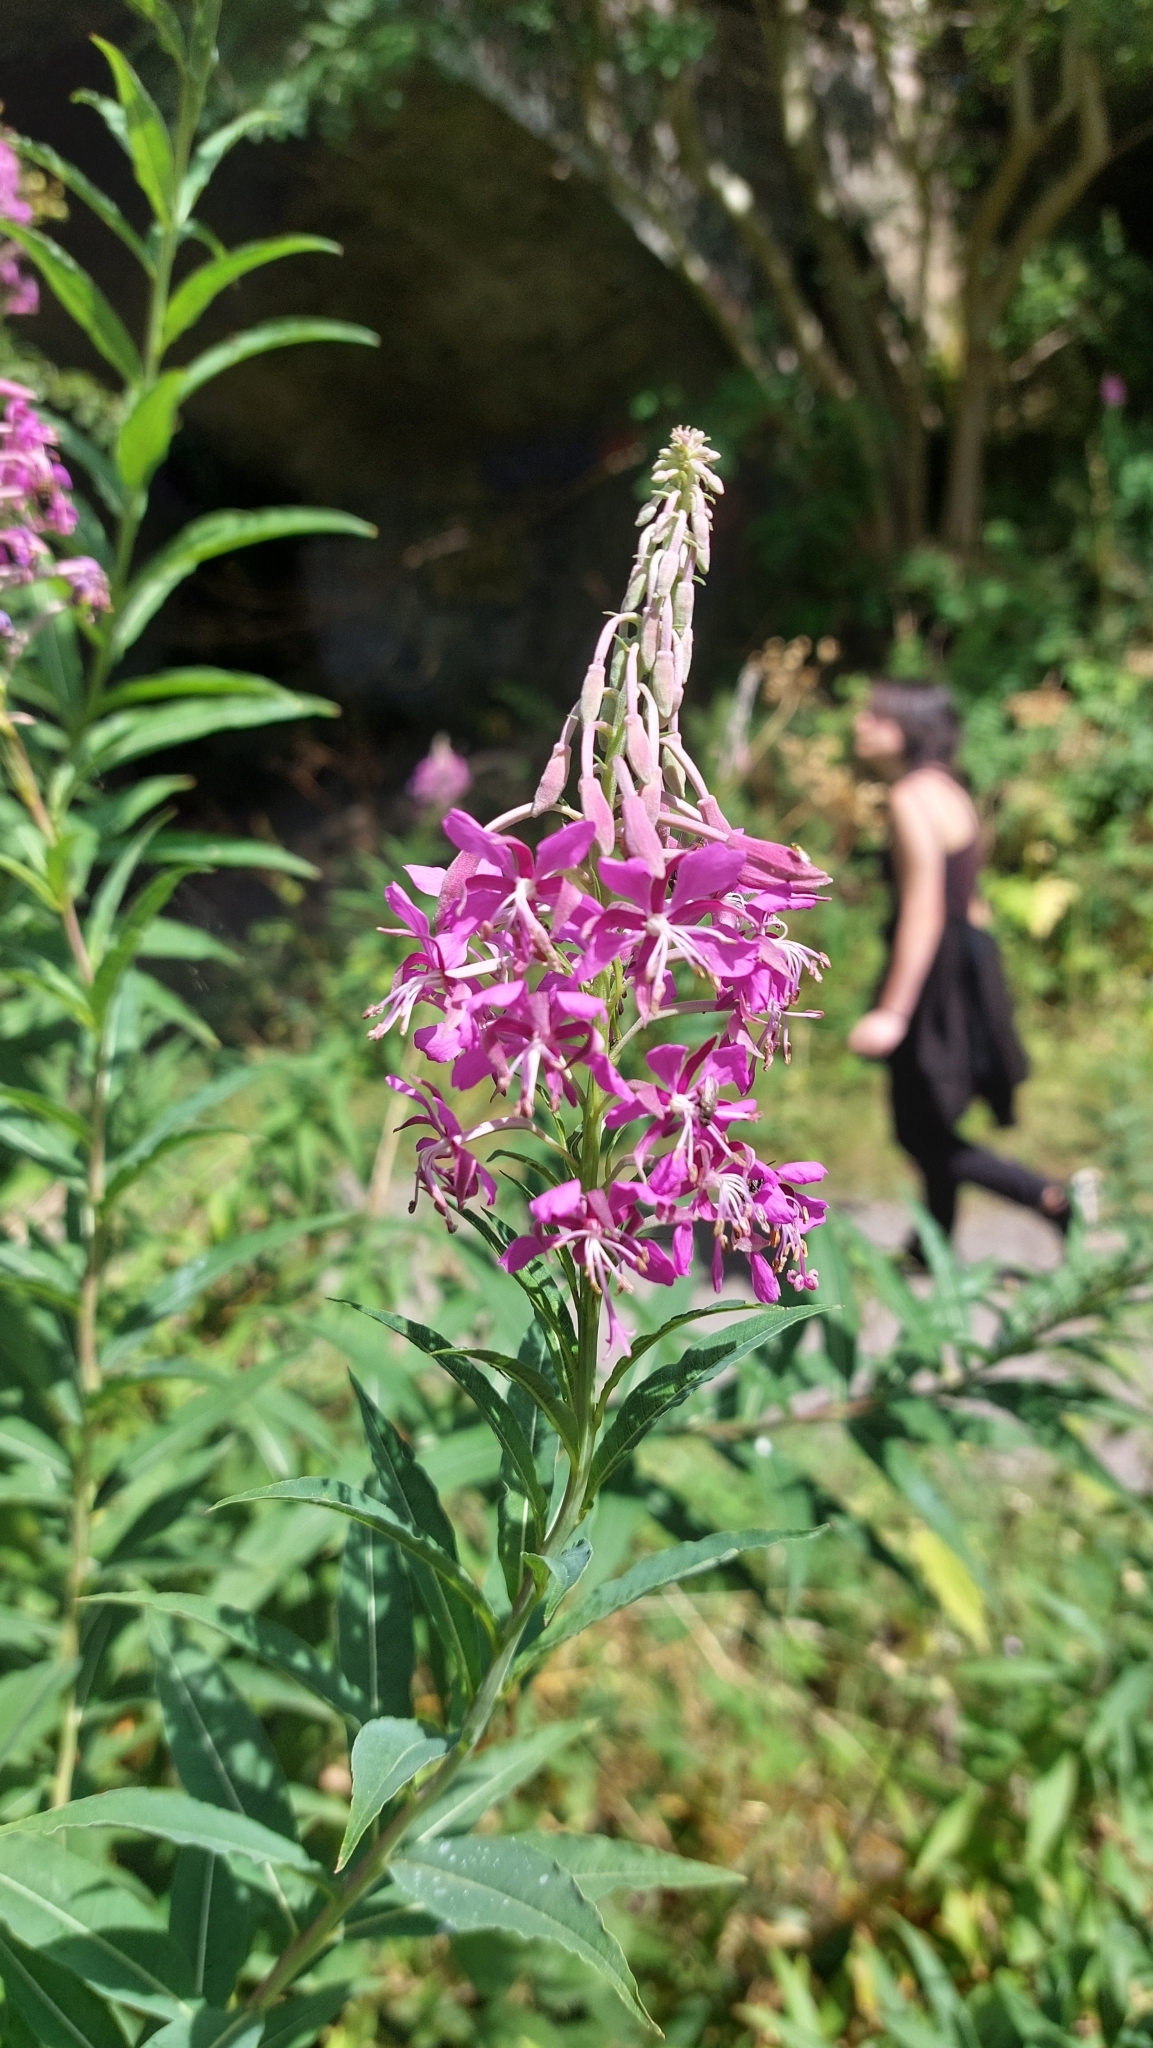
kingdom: Plantae
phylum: Tracheophyta
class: Magnoliopsida
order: Myrtales
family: Onagraceae
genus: Chamaenerion
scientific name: Chamaenerion angustifolium
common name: Fireweed
